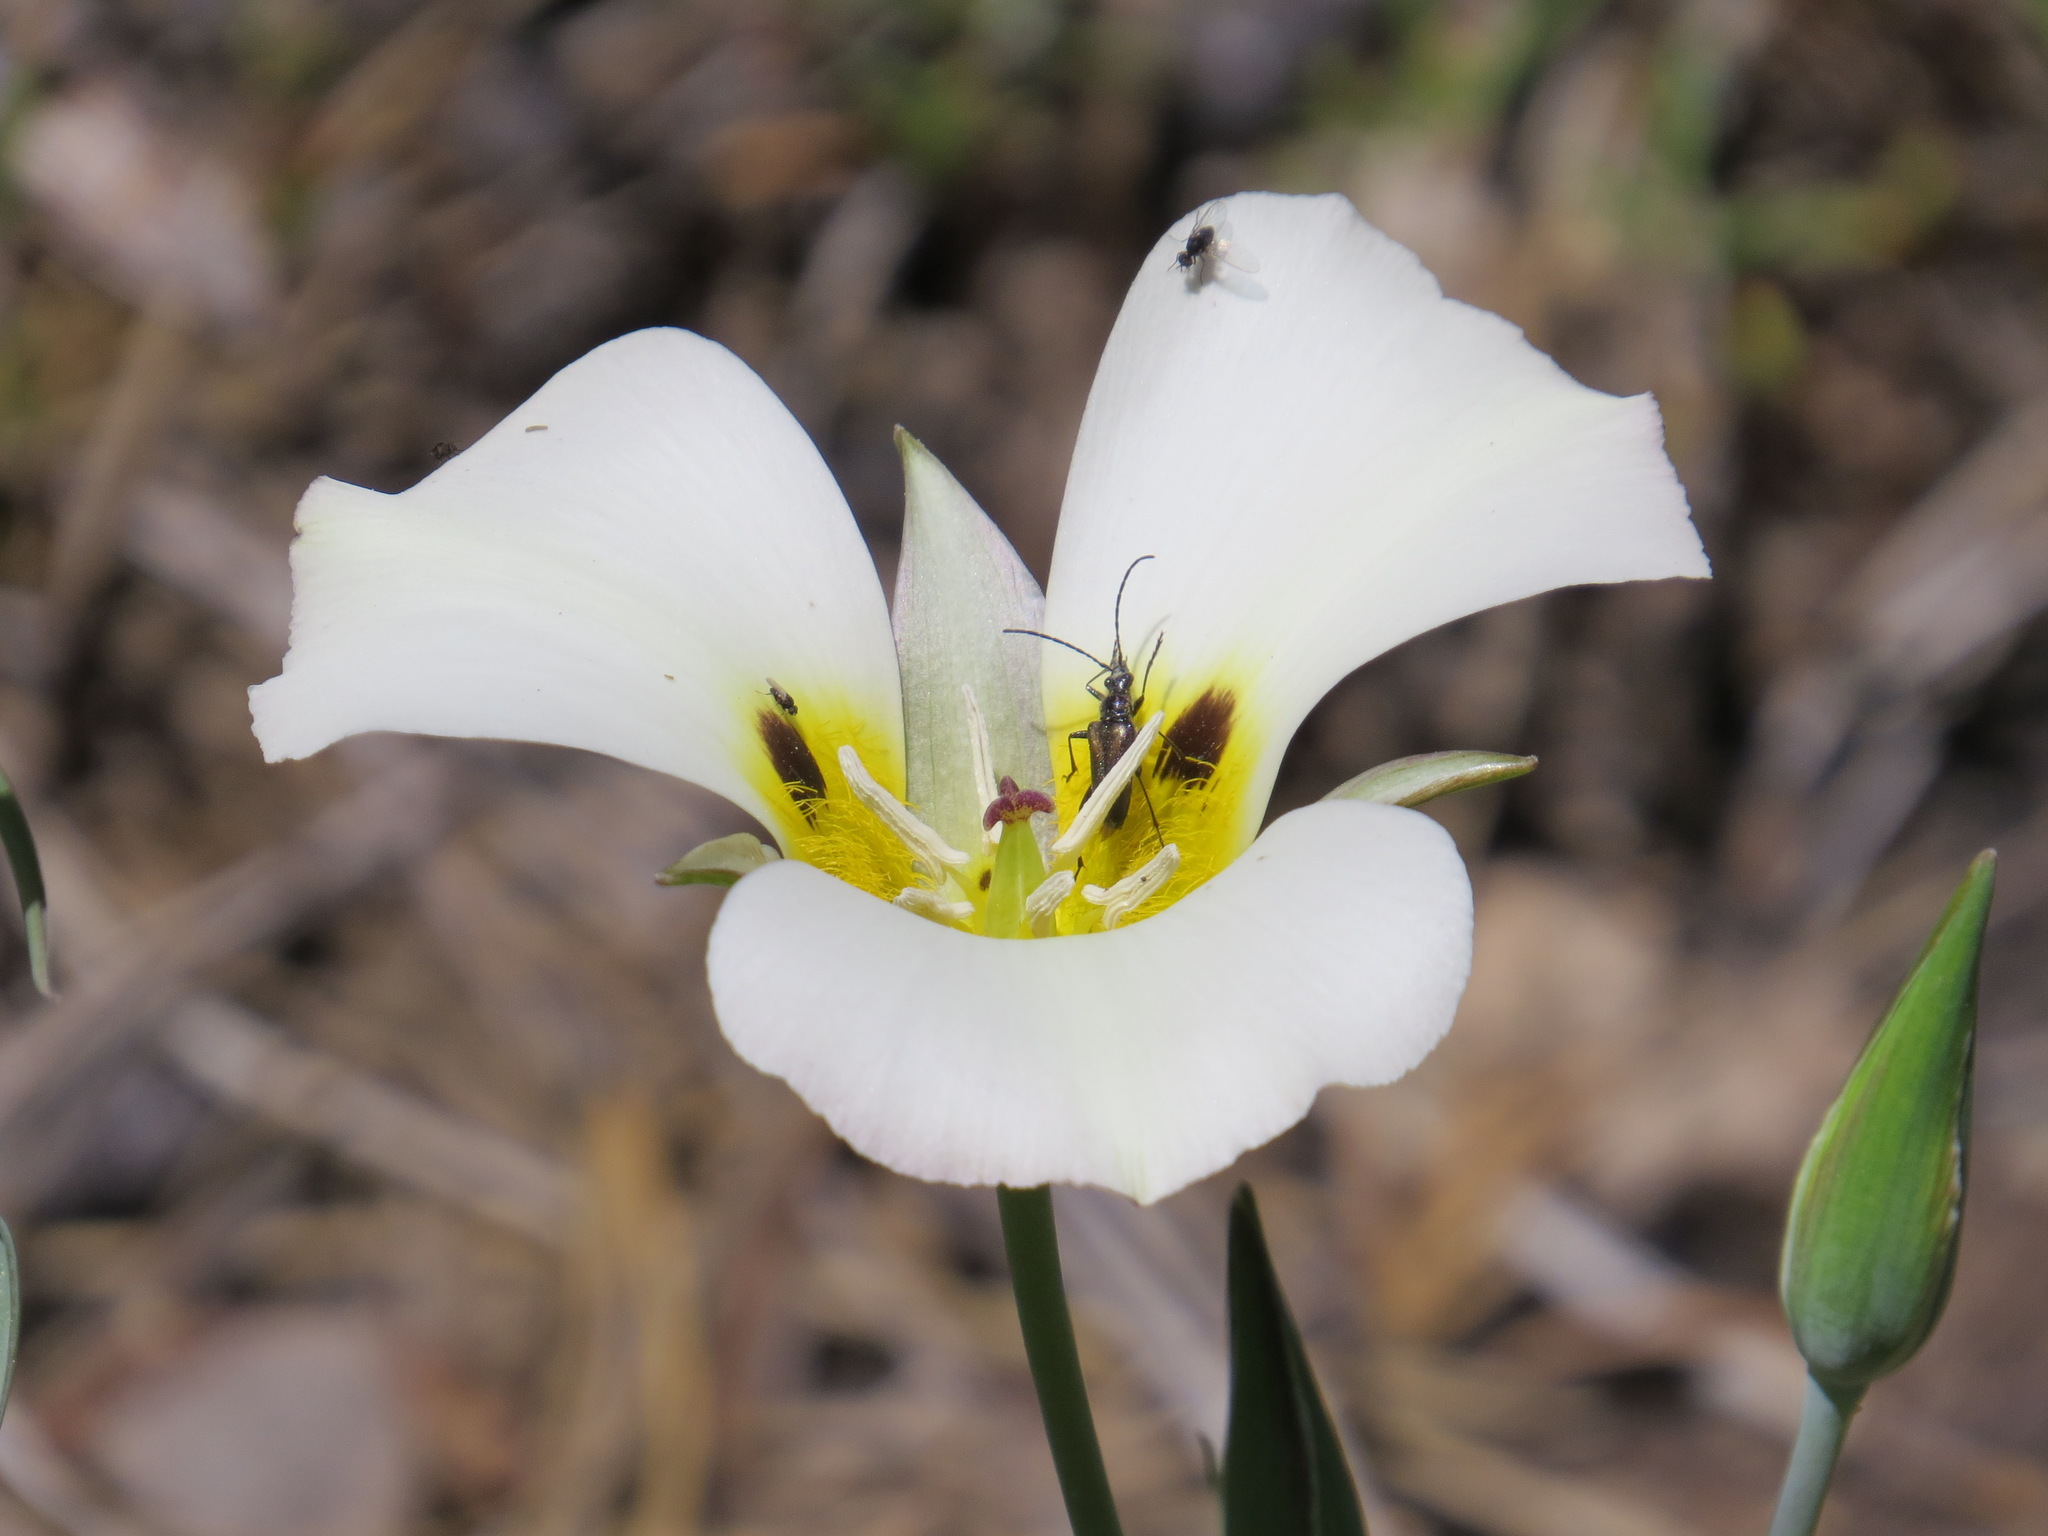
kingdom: Plantae
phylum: Tracheophyta
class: Liliopsida
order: Liliales
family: Liliaceae
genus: Calochortus
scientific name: Calochortus leichtlinii
